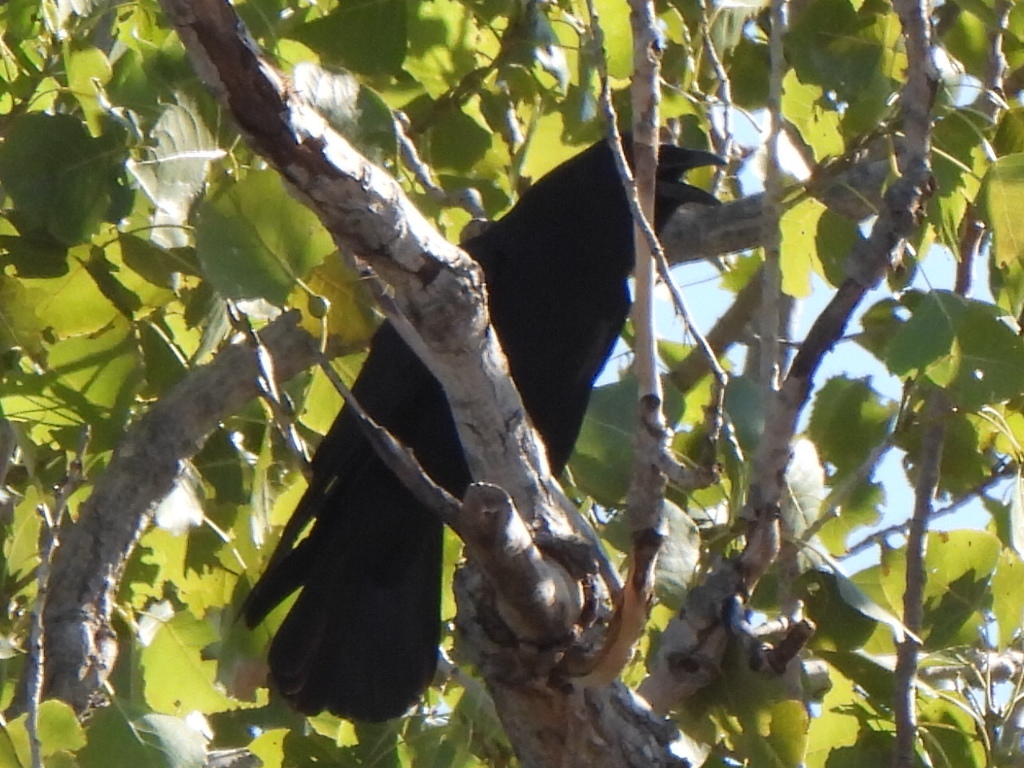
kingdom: Animalia
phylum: Chordata
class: Aves
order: Passeriformes
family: Corvidae
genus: Corvus
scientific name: Corvus brachyrhynchos
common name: American crow
